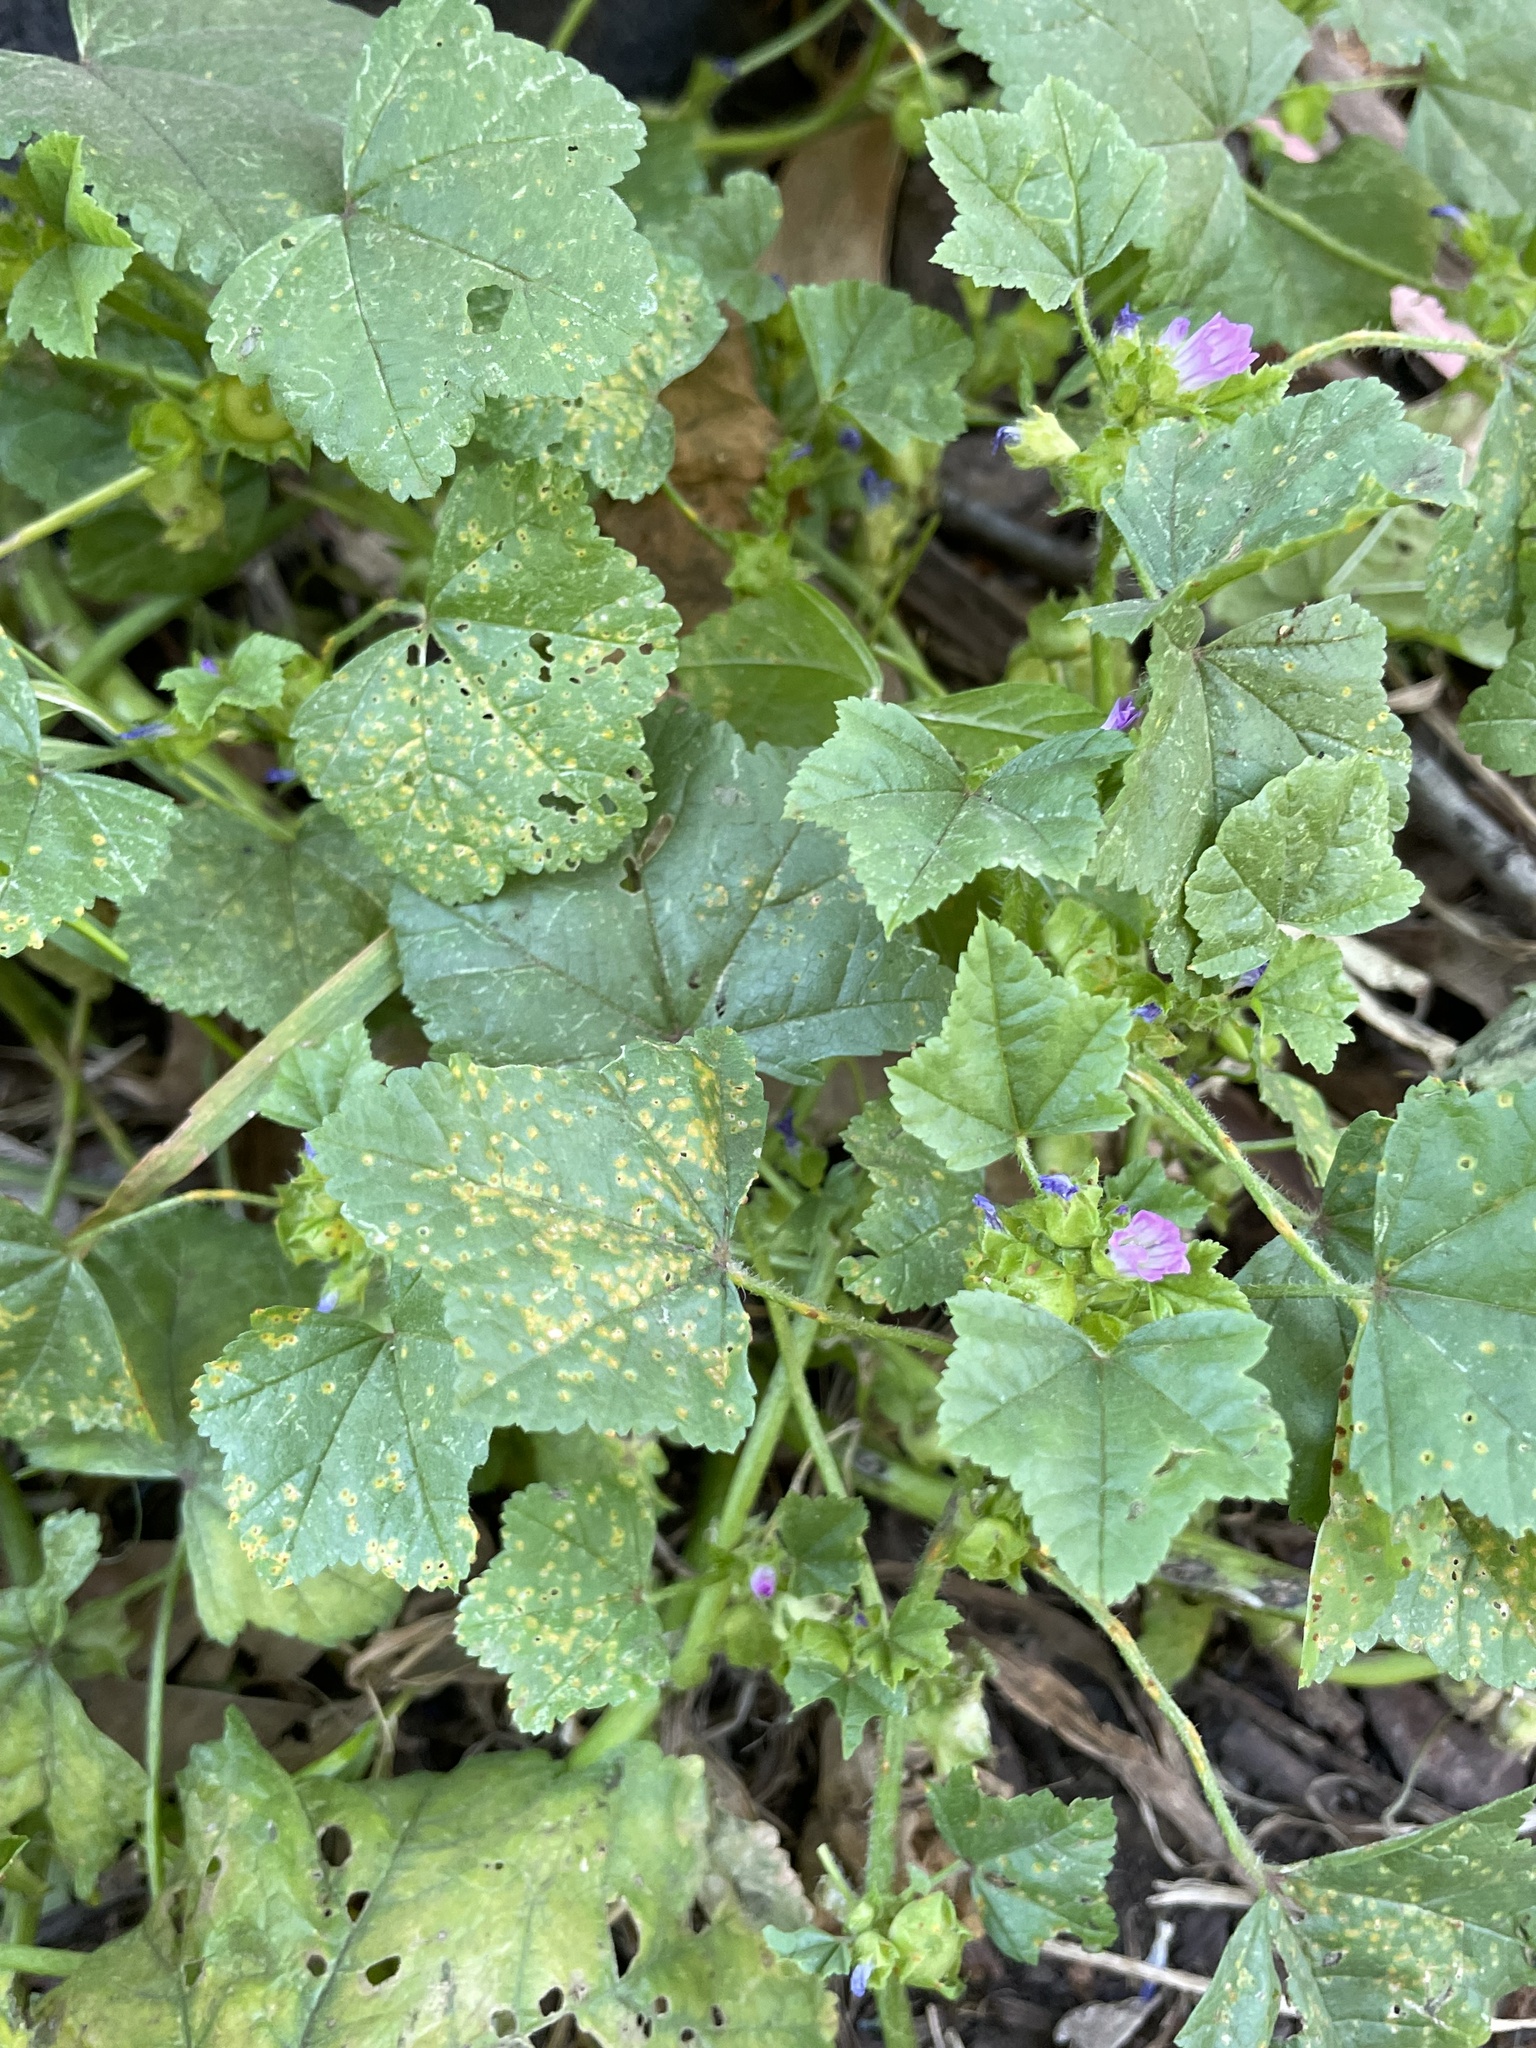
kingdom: Plantae
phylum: Tracheophyta
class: Magnoliopsida
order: Malvales
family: Malvaceae
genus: Malva
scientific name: Malva nicaeensis
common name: French mallow
